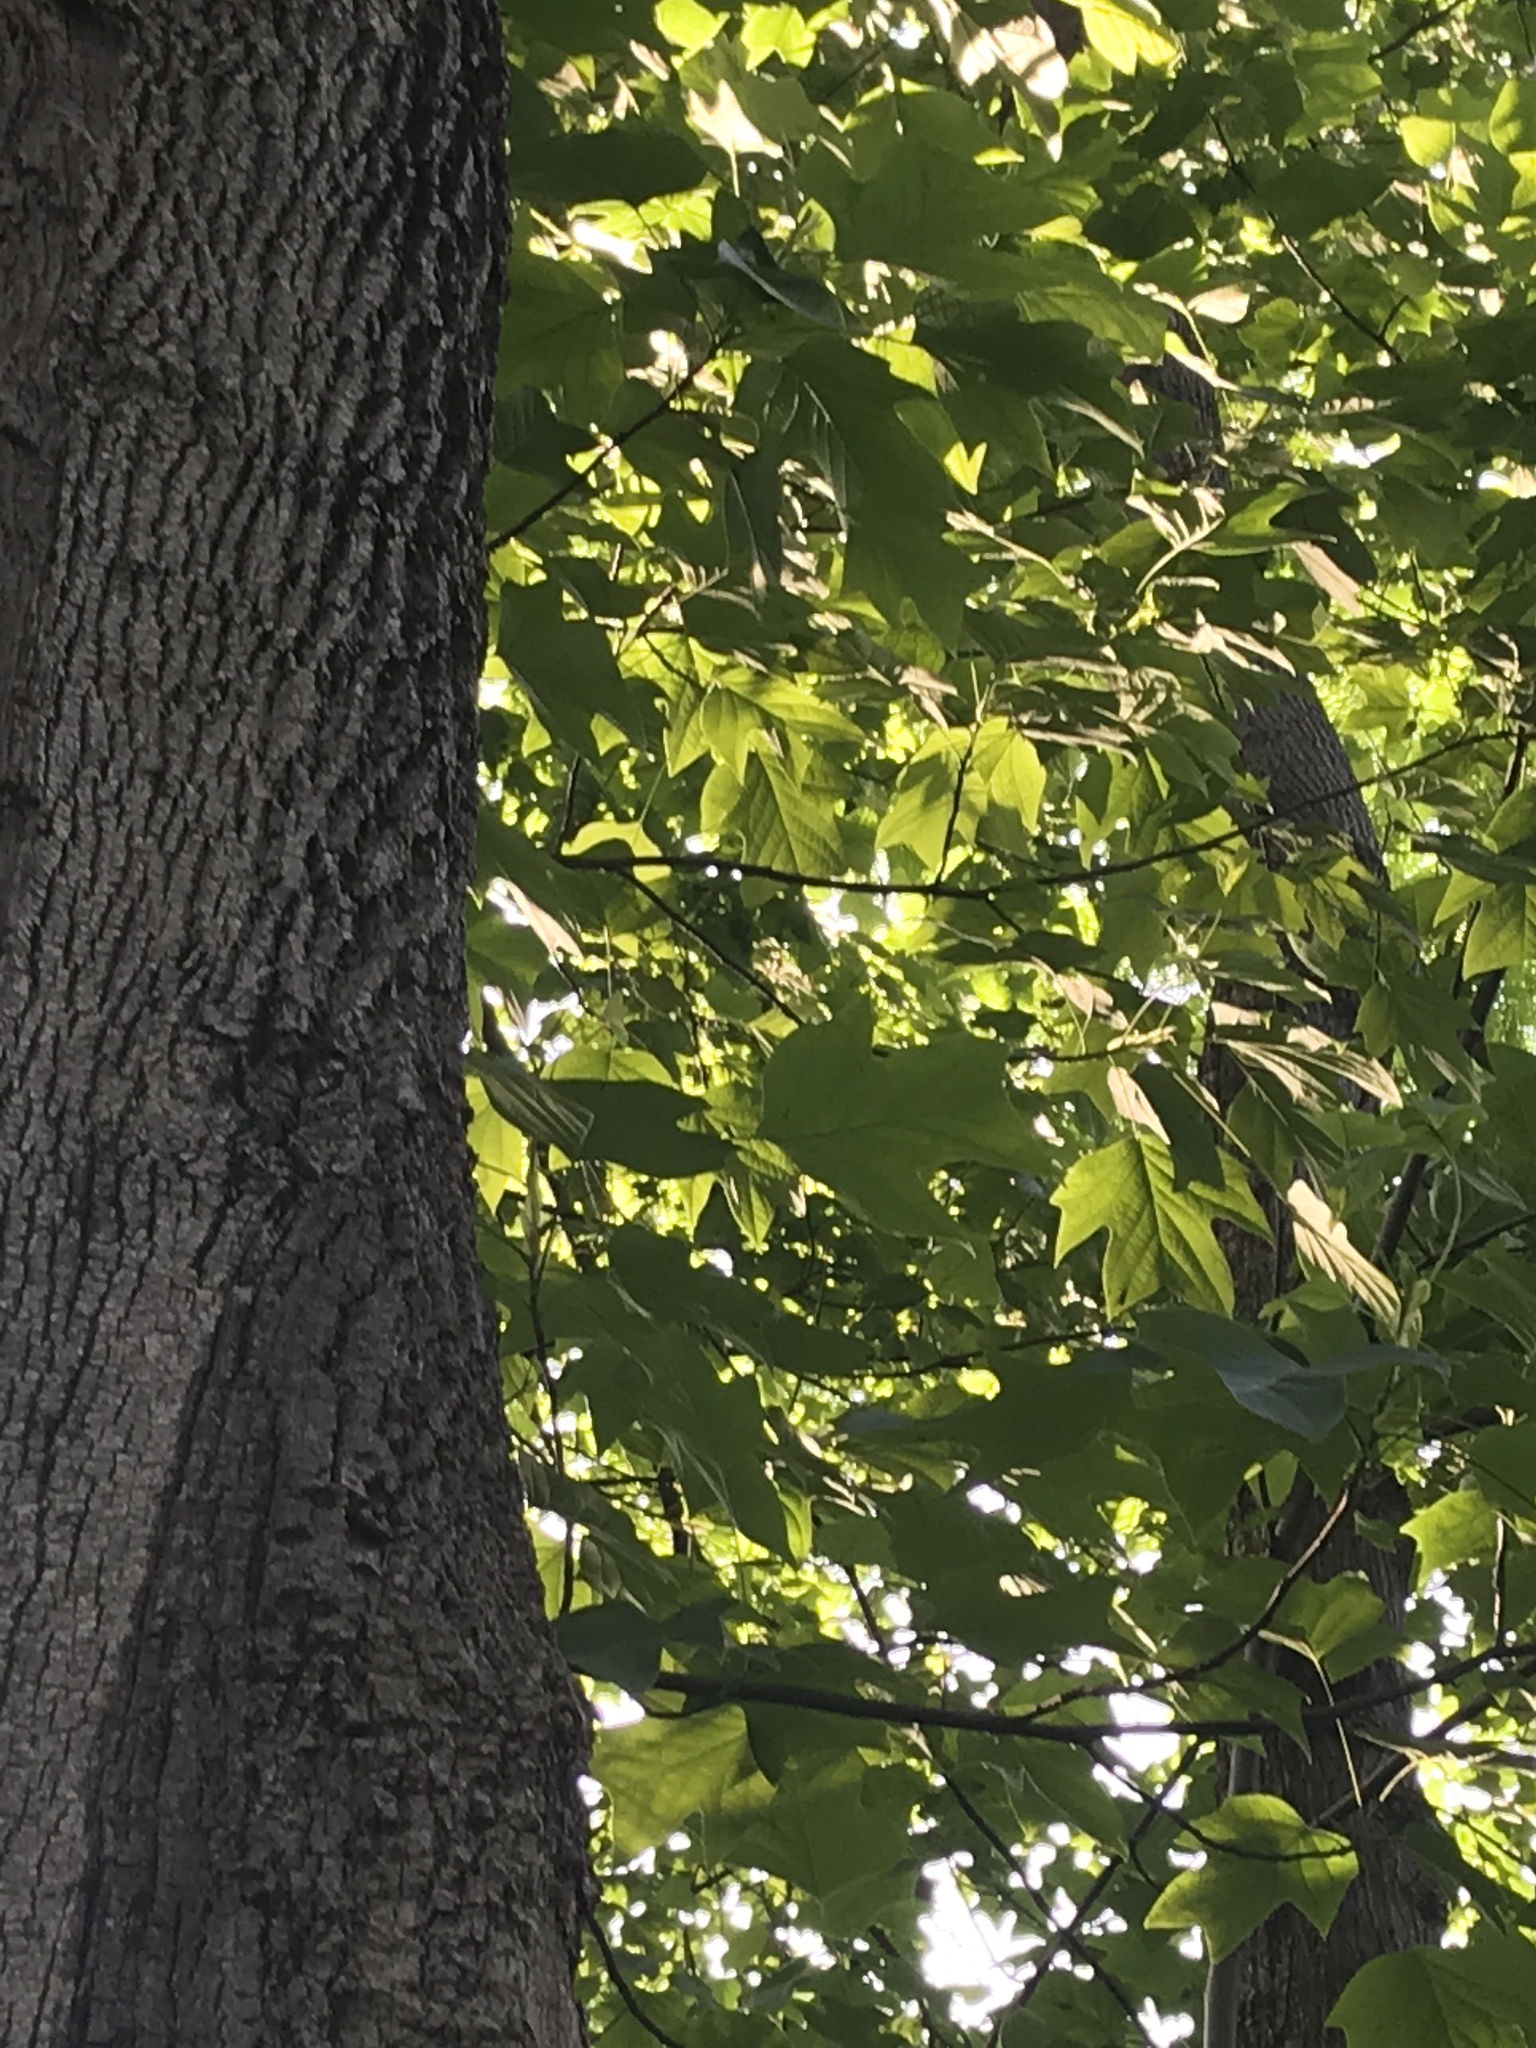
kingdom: Plantae
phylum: Tracheophyta
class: Magnoliopsida
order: Magnoliales
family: Magnoliaceae
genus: Liriodendron
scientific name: Liriodendron tulipifera
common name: Tulip tree
